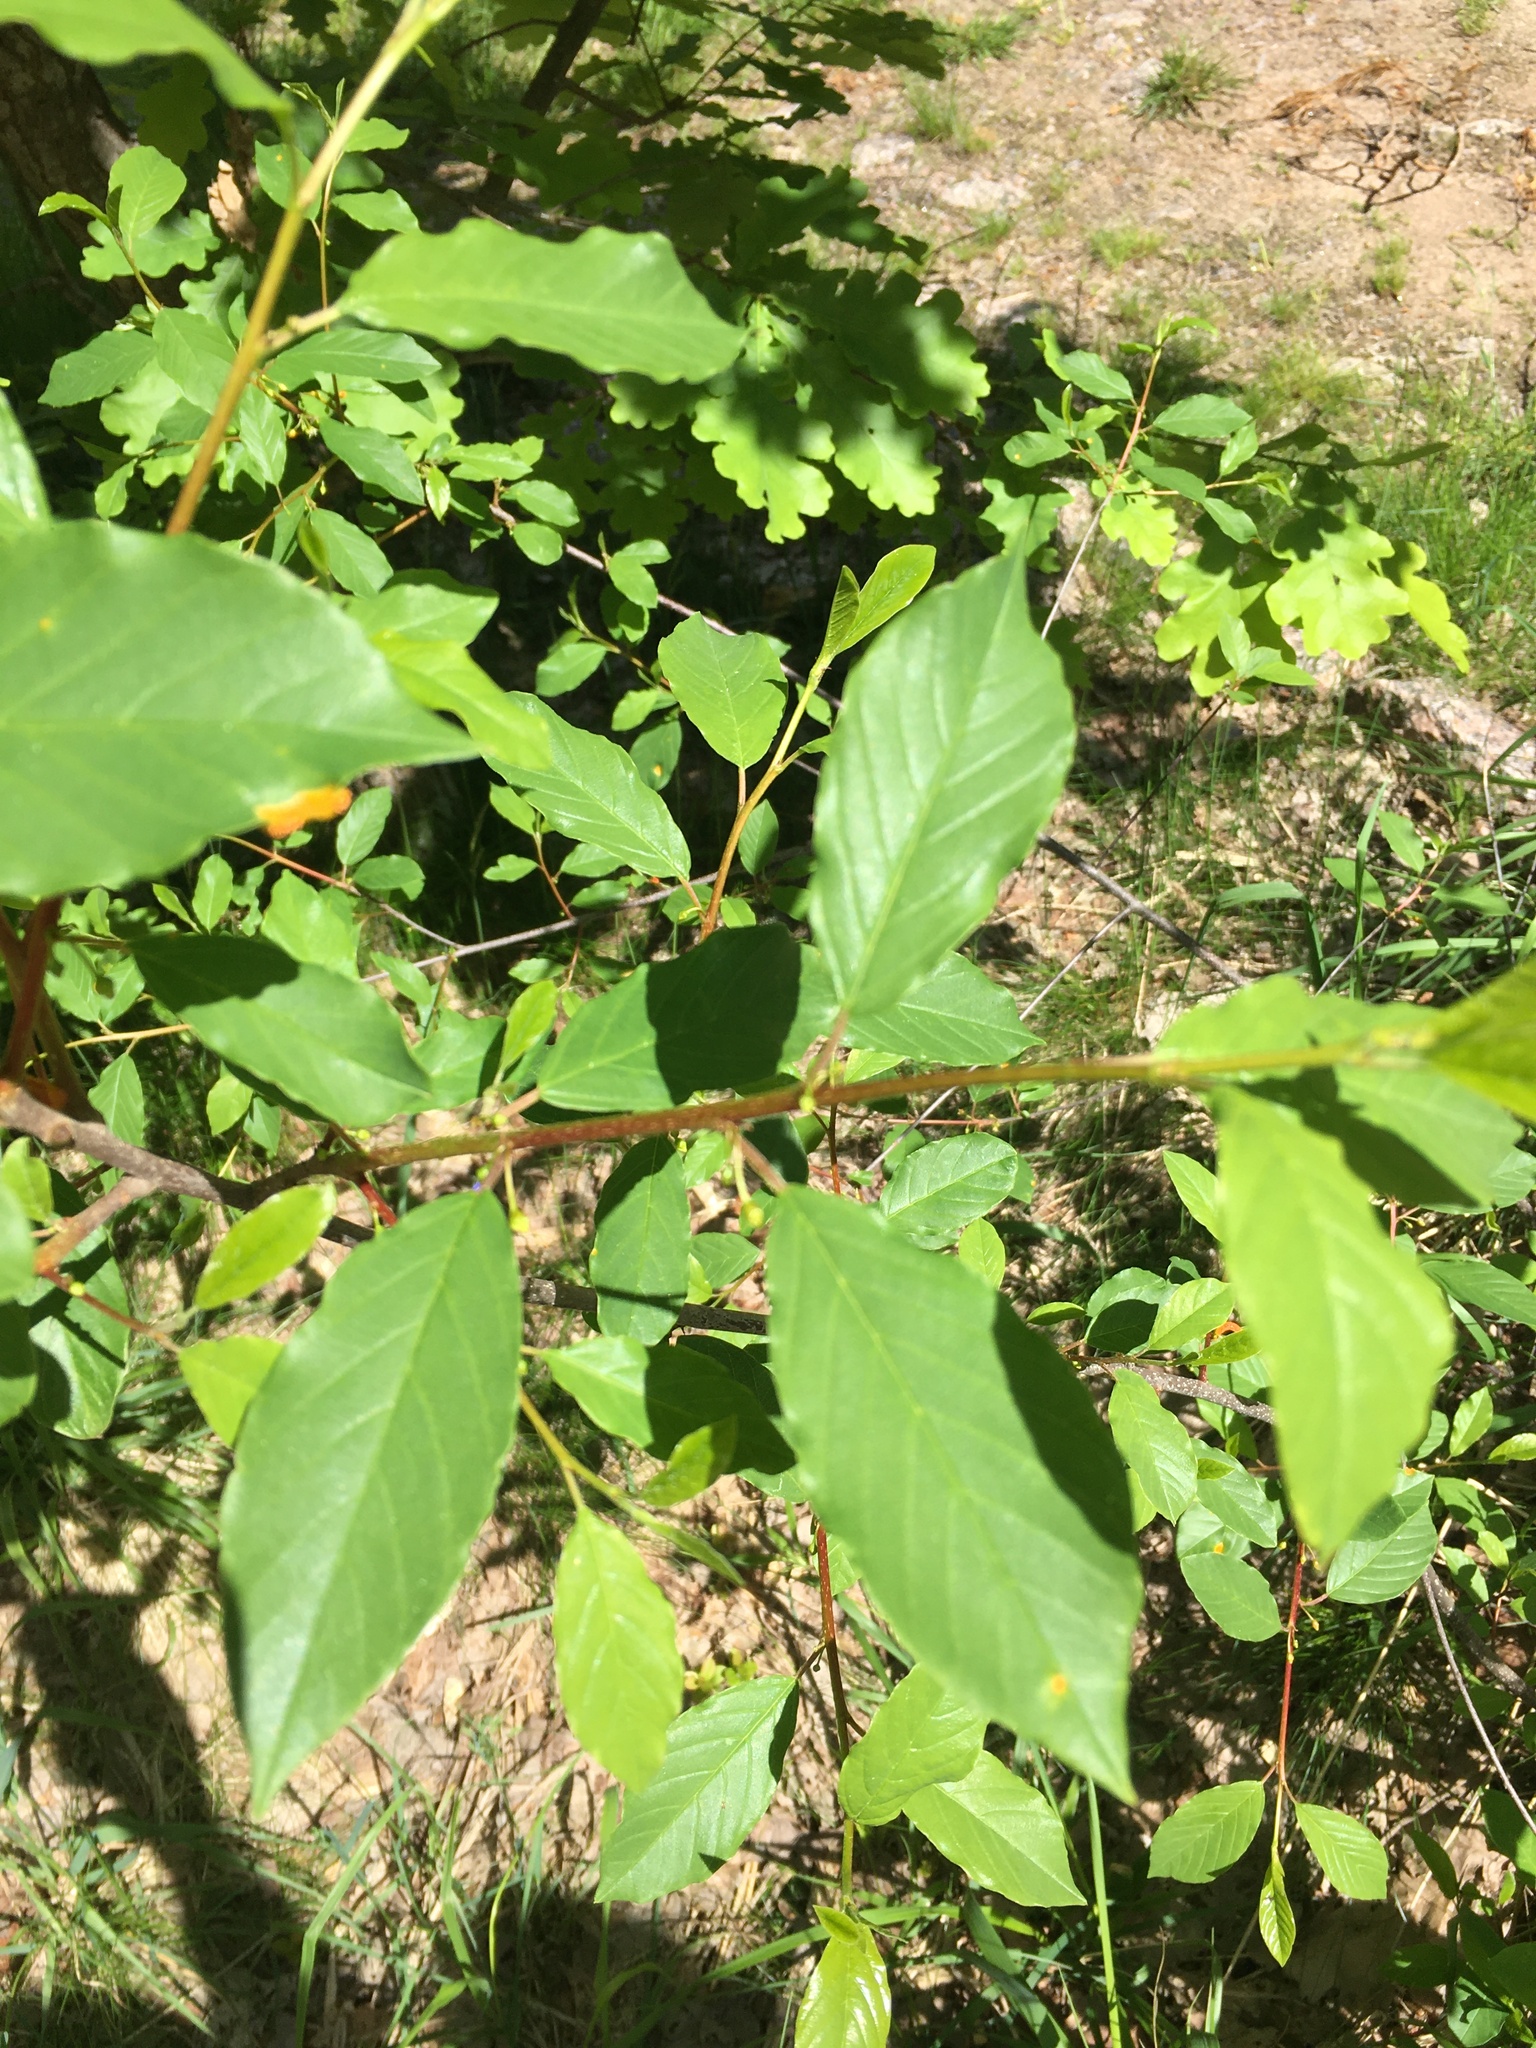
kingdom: Plantae
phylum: Tracheophyta
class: Magnoliopsida
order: Rosales
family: Rhamnaceae
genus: Frangula
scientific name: Frangula alnus
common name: Alder buckthorn
